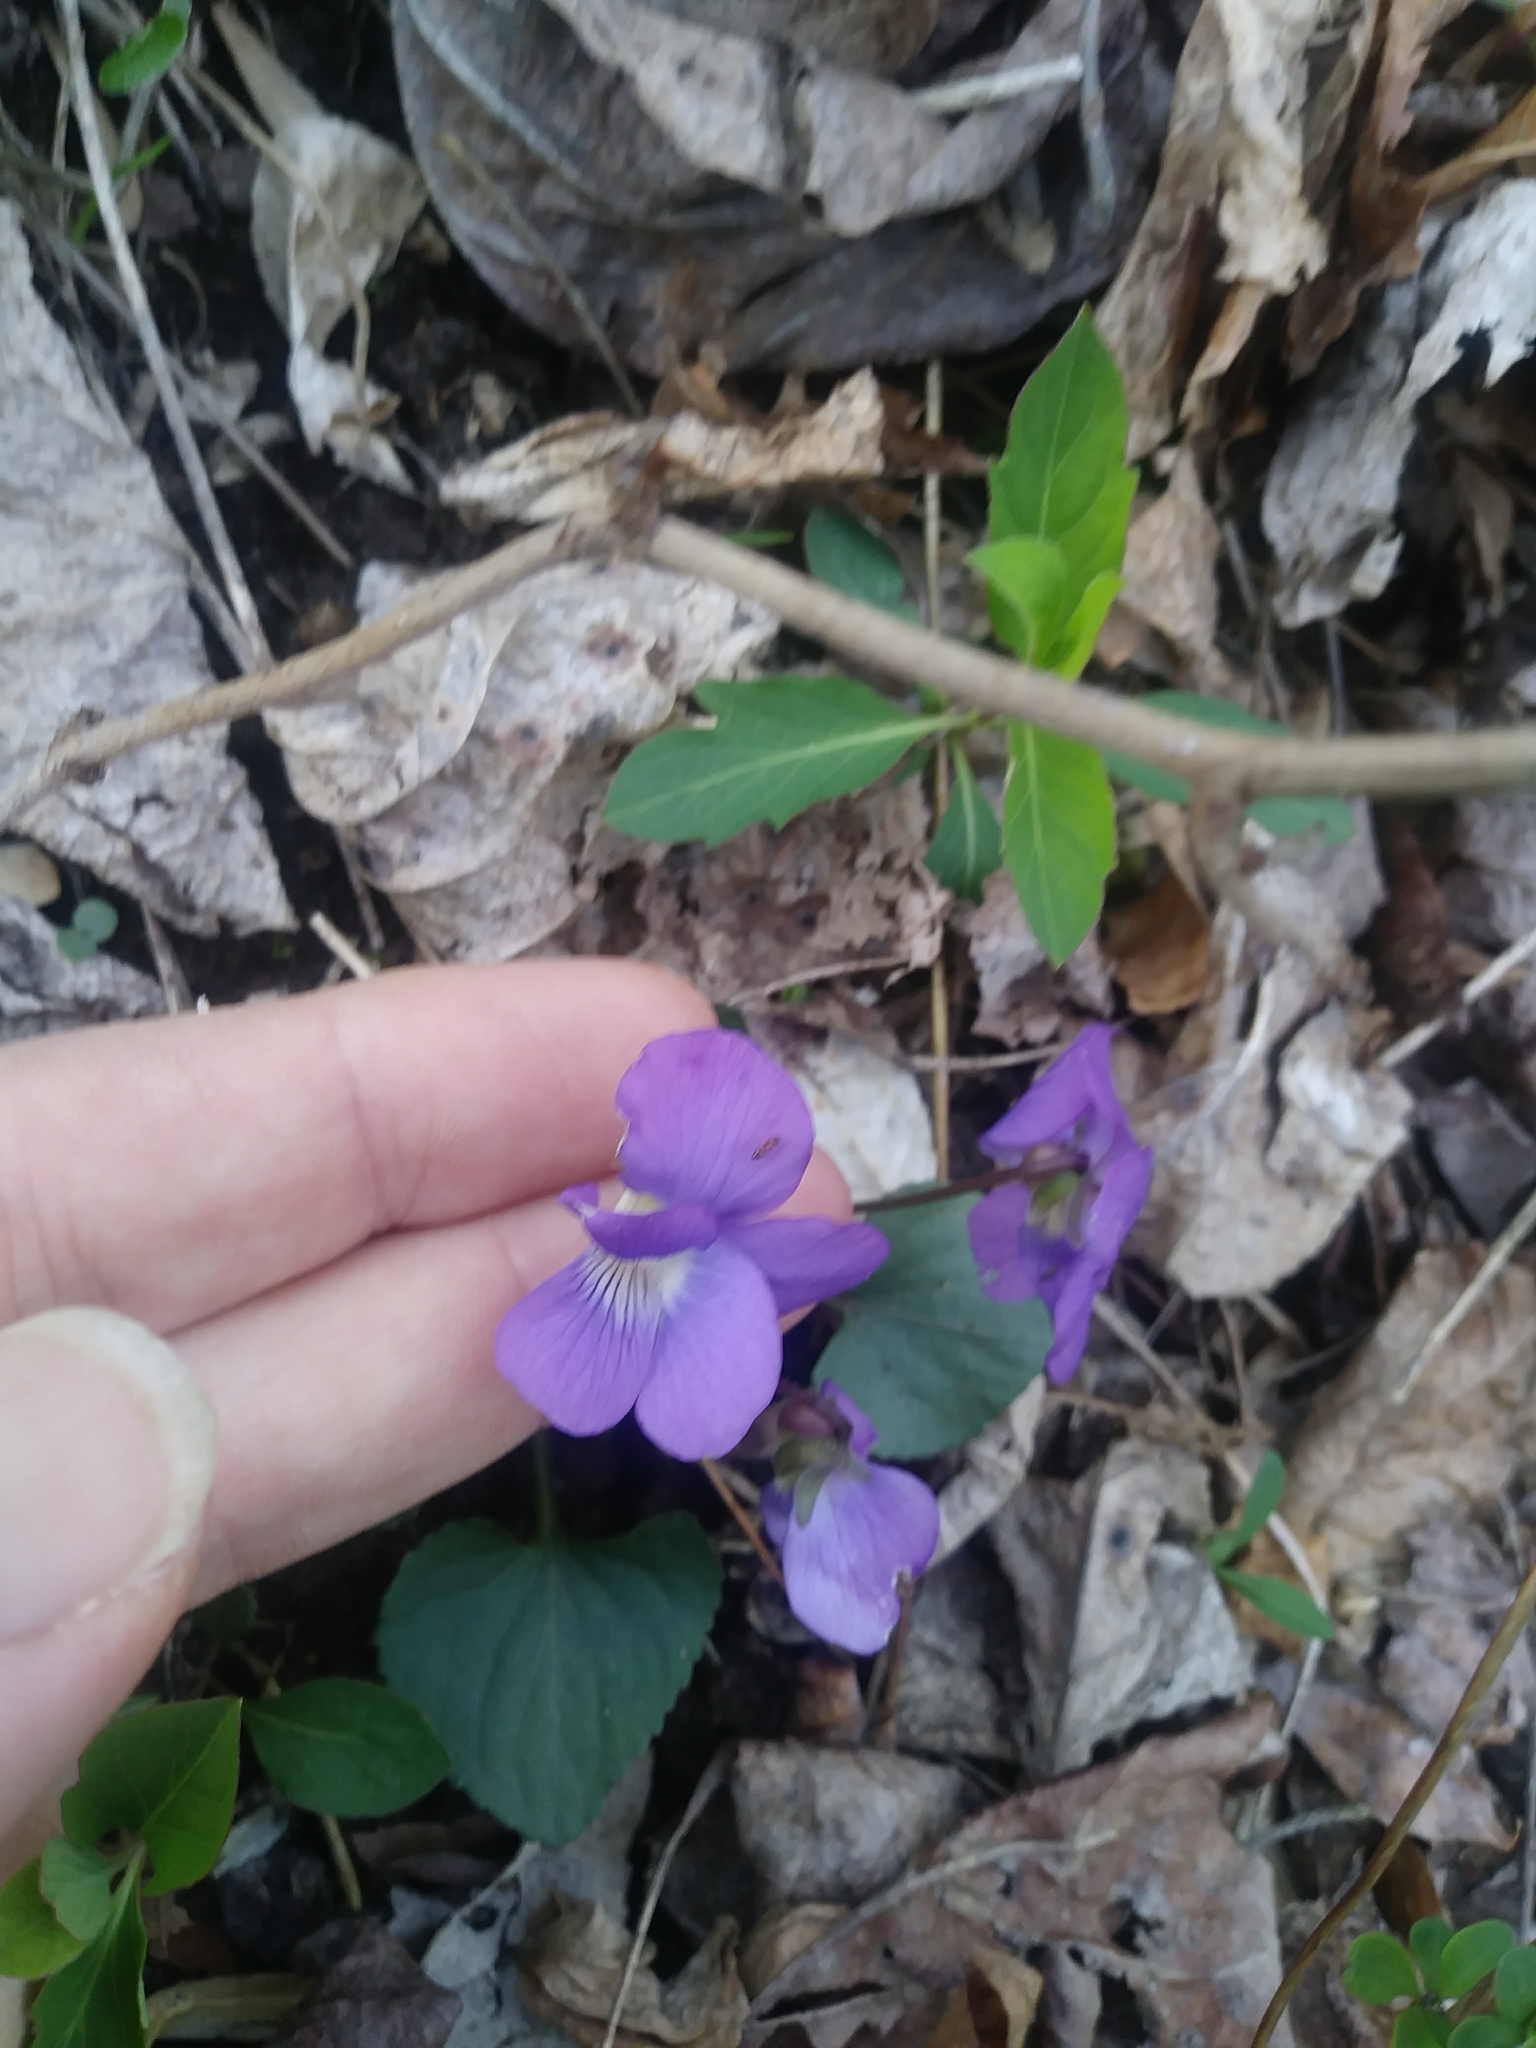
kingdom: Plantae
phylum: Tracheophyta
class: Magnoliopsida
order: Malpighiales
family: Violaceae
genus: Viola
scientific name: Viola sororia
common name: Dooryard violet
